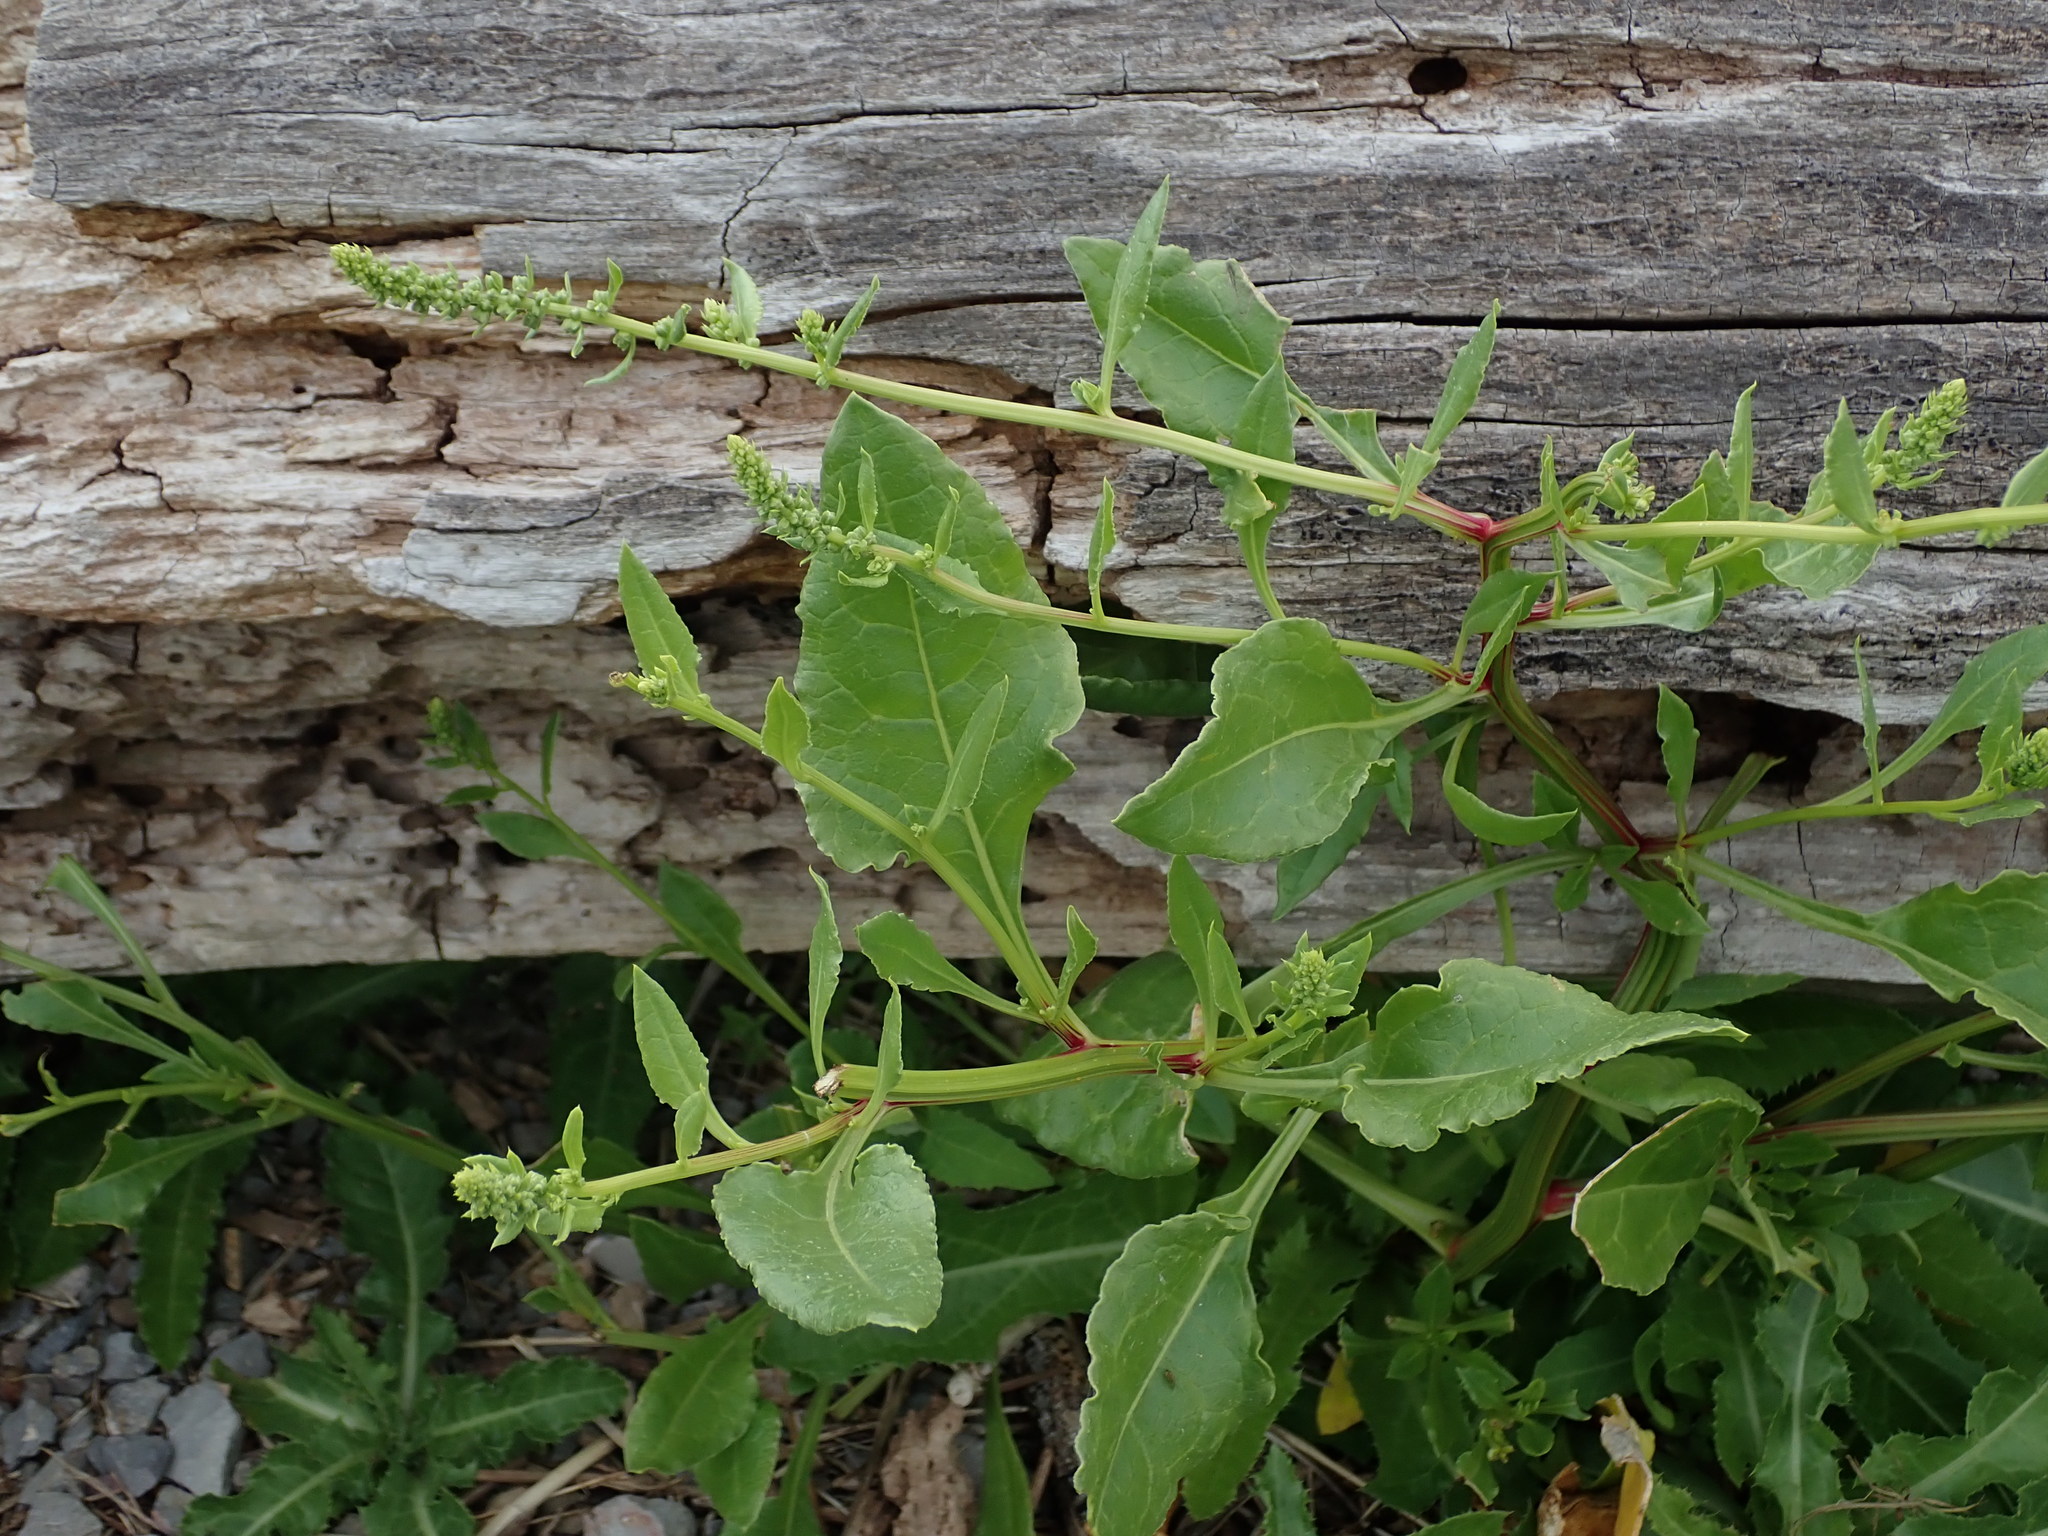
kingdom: Plantae
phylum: Tracheophyta
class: Magnoliopsida
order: Caryophyllales
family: Amaranthaceae
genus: Beta
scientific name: Beta vulgaris
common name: Beet
